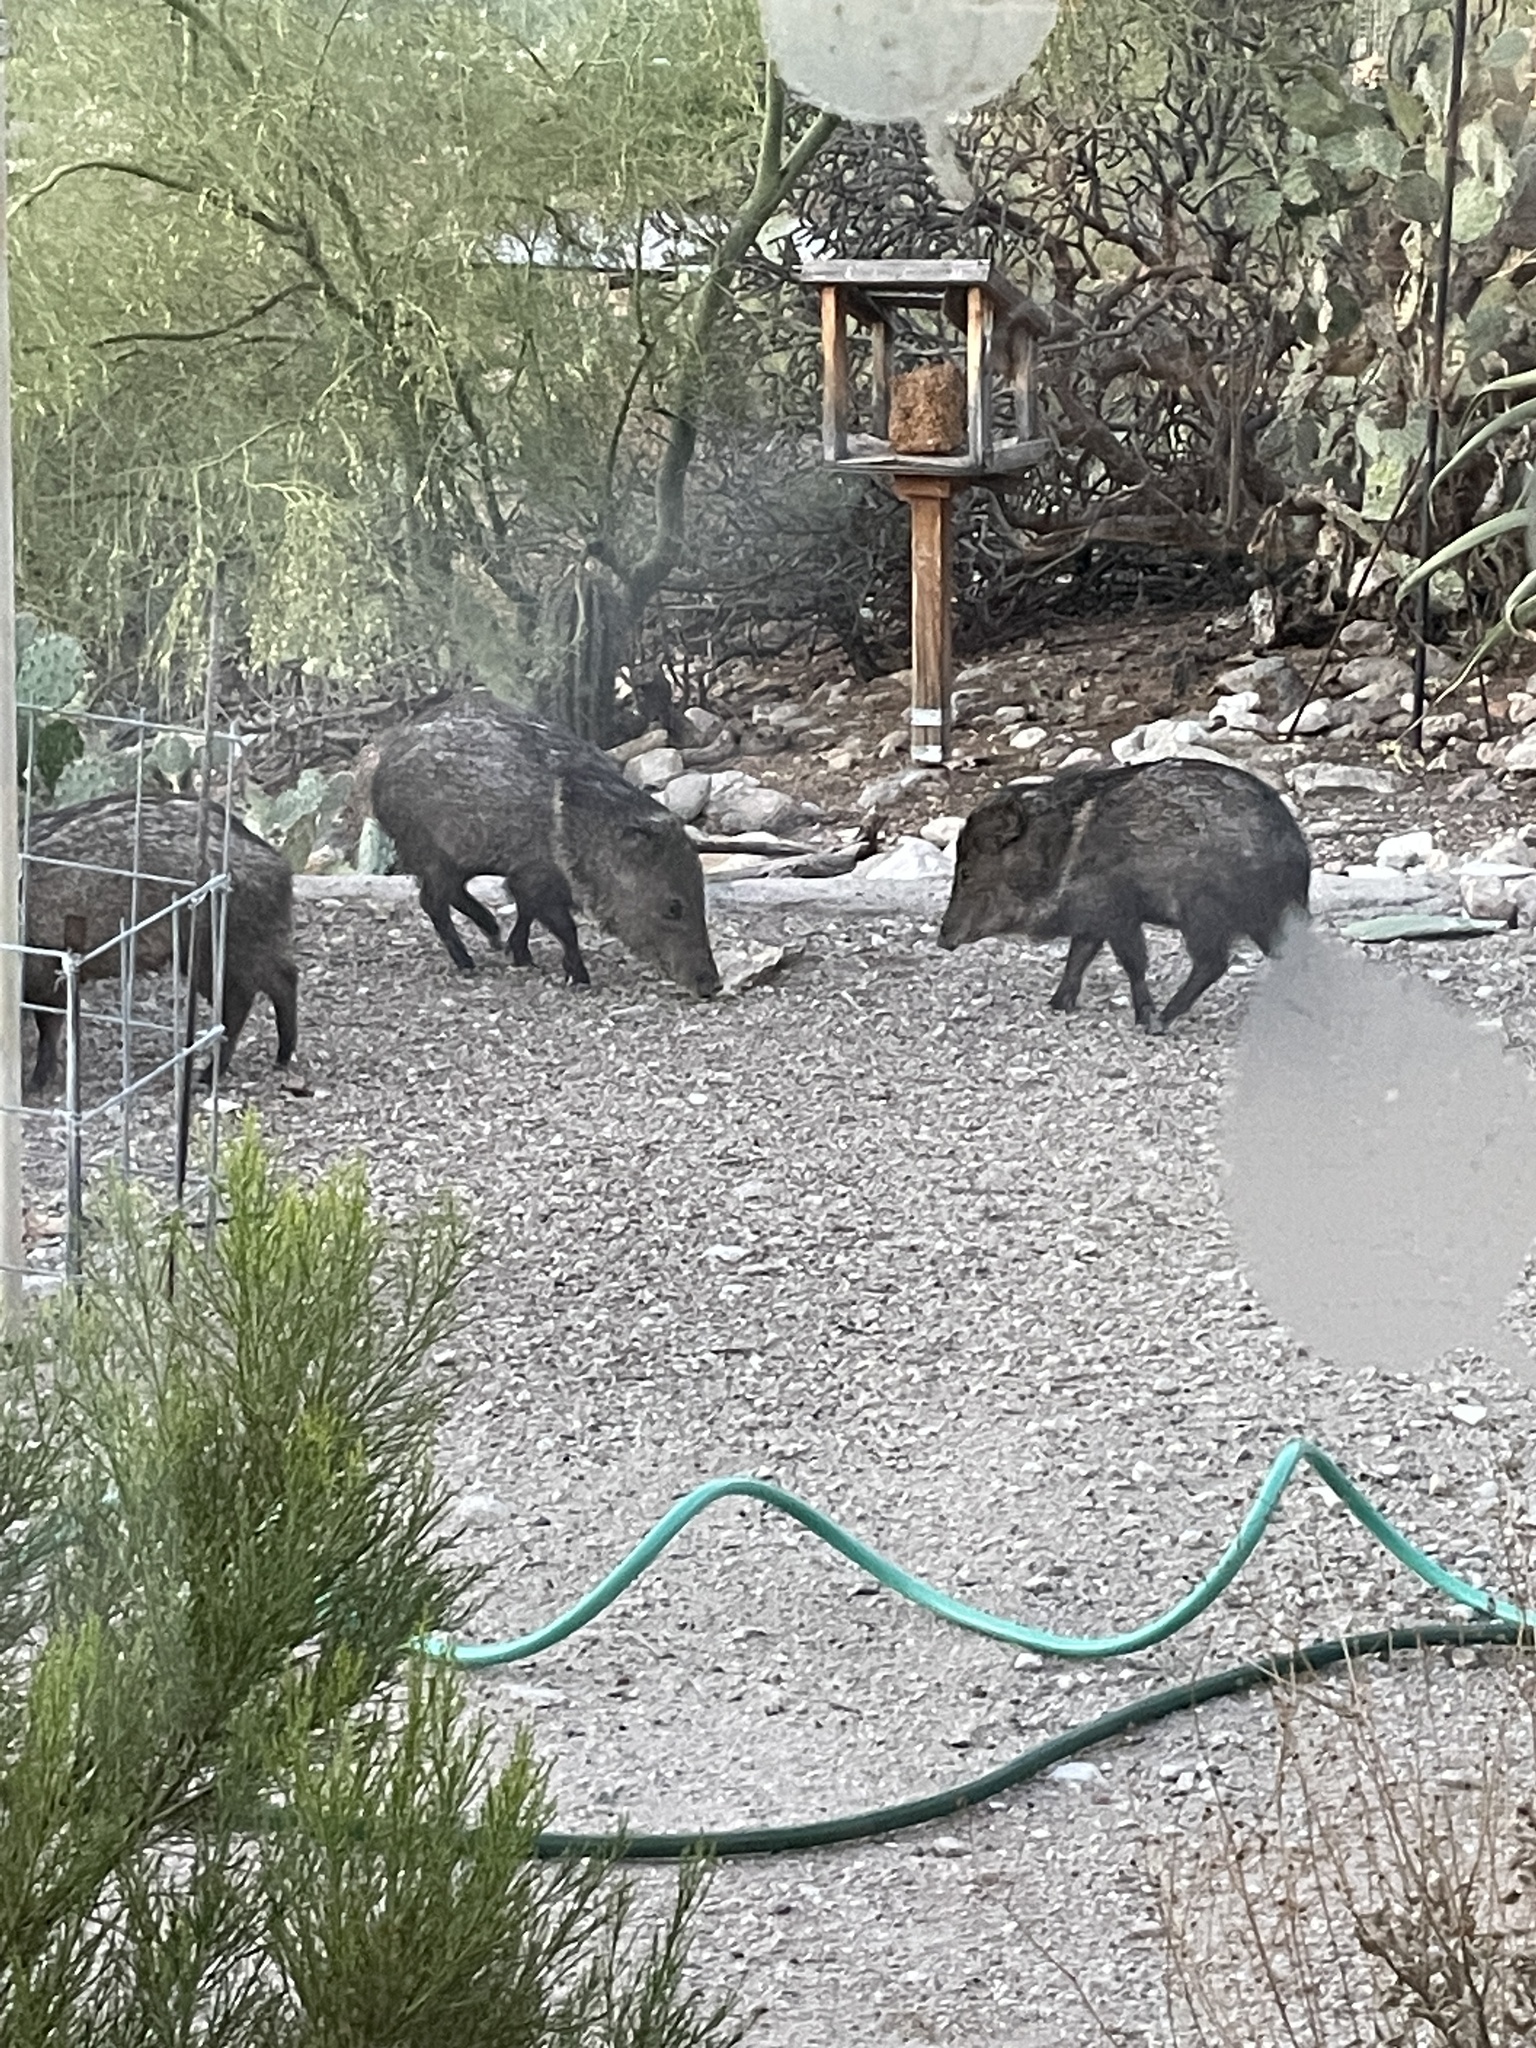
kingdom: Animalia
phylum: Chordata
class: Mammalia
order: Artiodactyla
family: Tayassuidae
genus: Pecari
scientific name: Pecari tajacu
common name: Collared peccary
